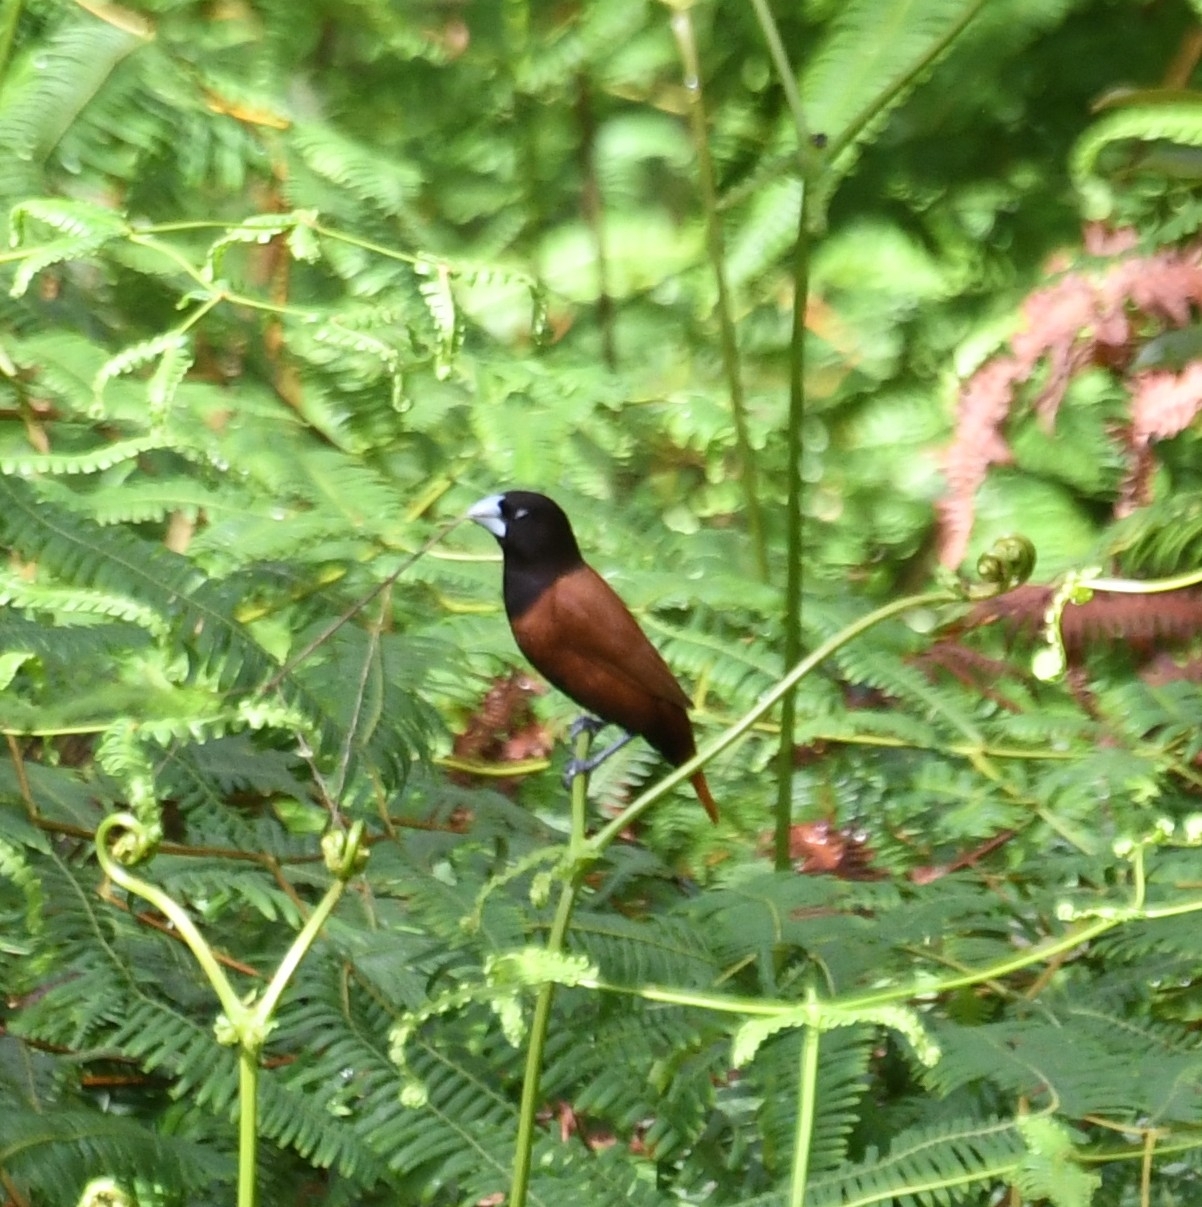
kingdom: Animalia
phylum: Chordata
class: Aves
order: Passeriformes
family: Estrildidae
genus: Lonchura
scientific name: Lonchura atricapilla
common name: Chestnut munia
